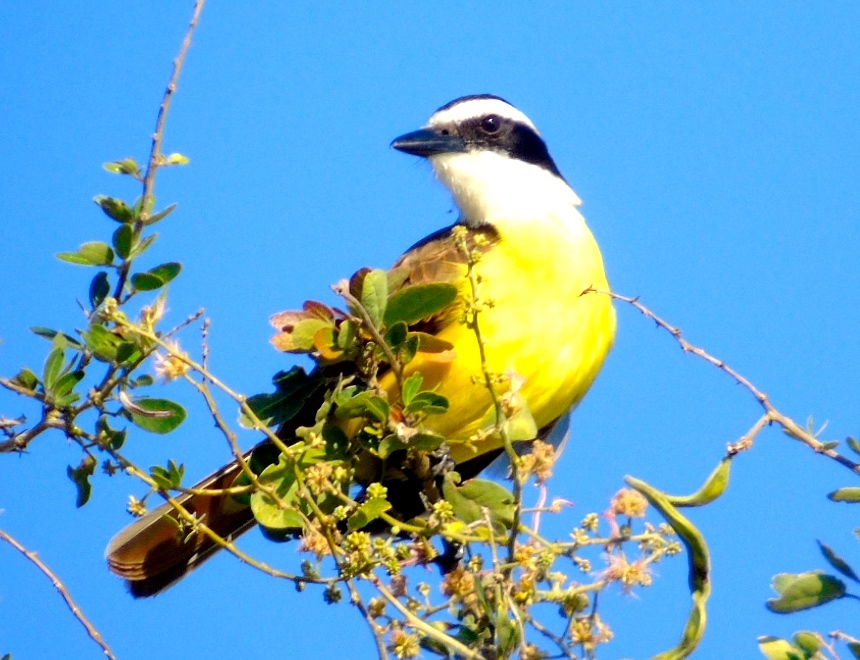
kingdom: Animalia
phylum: Chordata
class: Aves
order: Passeriformes
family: Tyrannidae
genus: Pitangus
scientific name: Pitangus sulphuratus
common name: Great kiskadee
